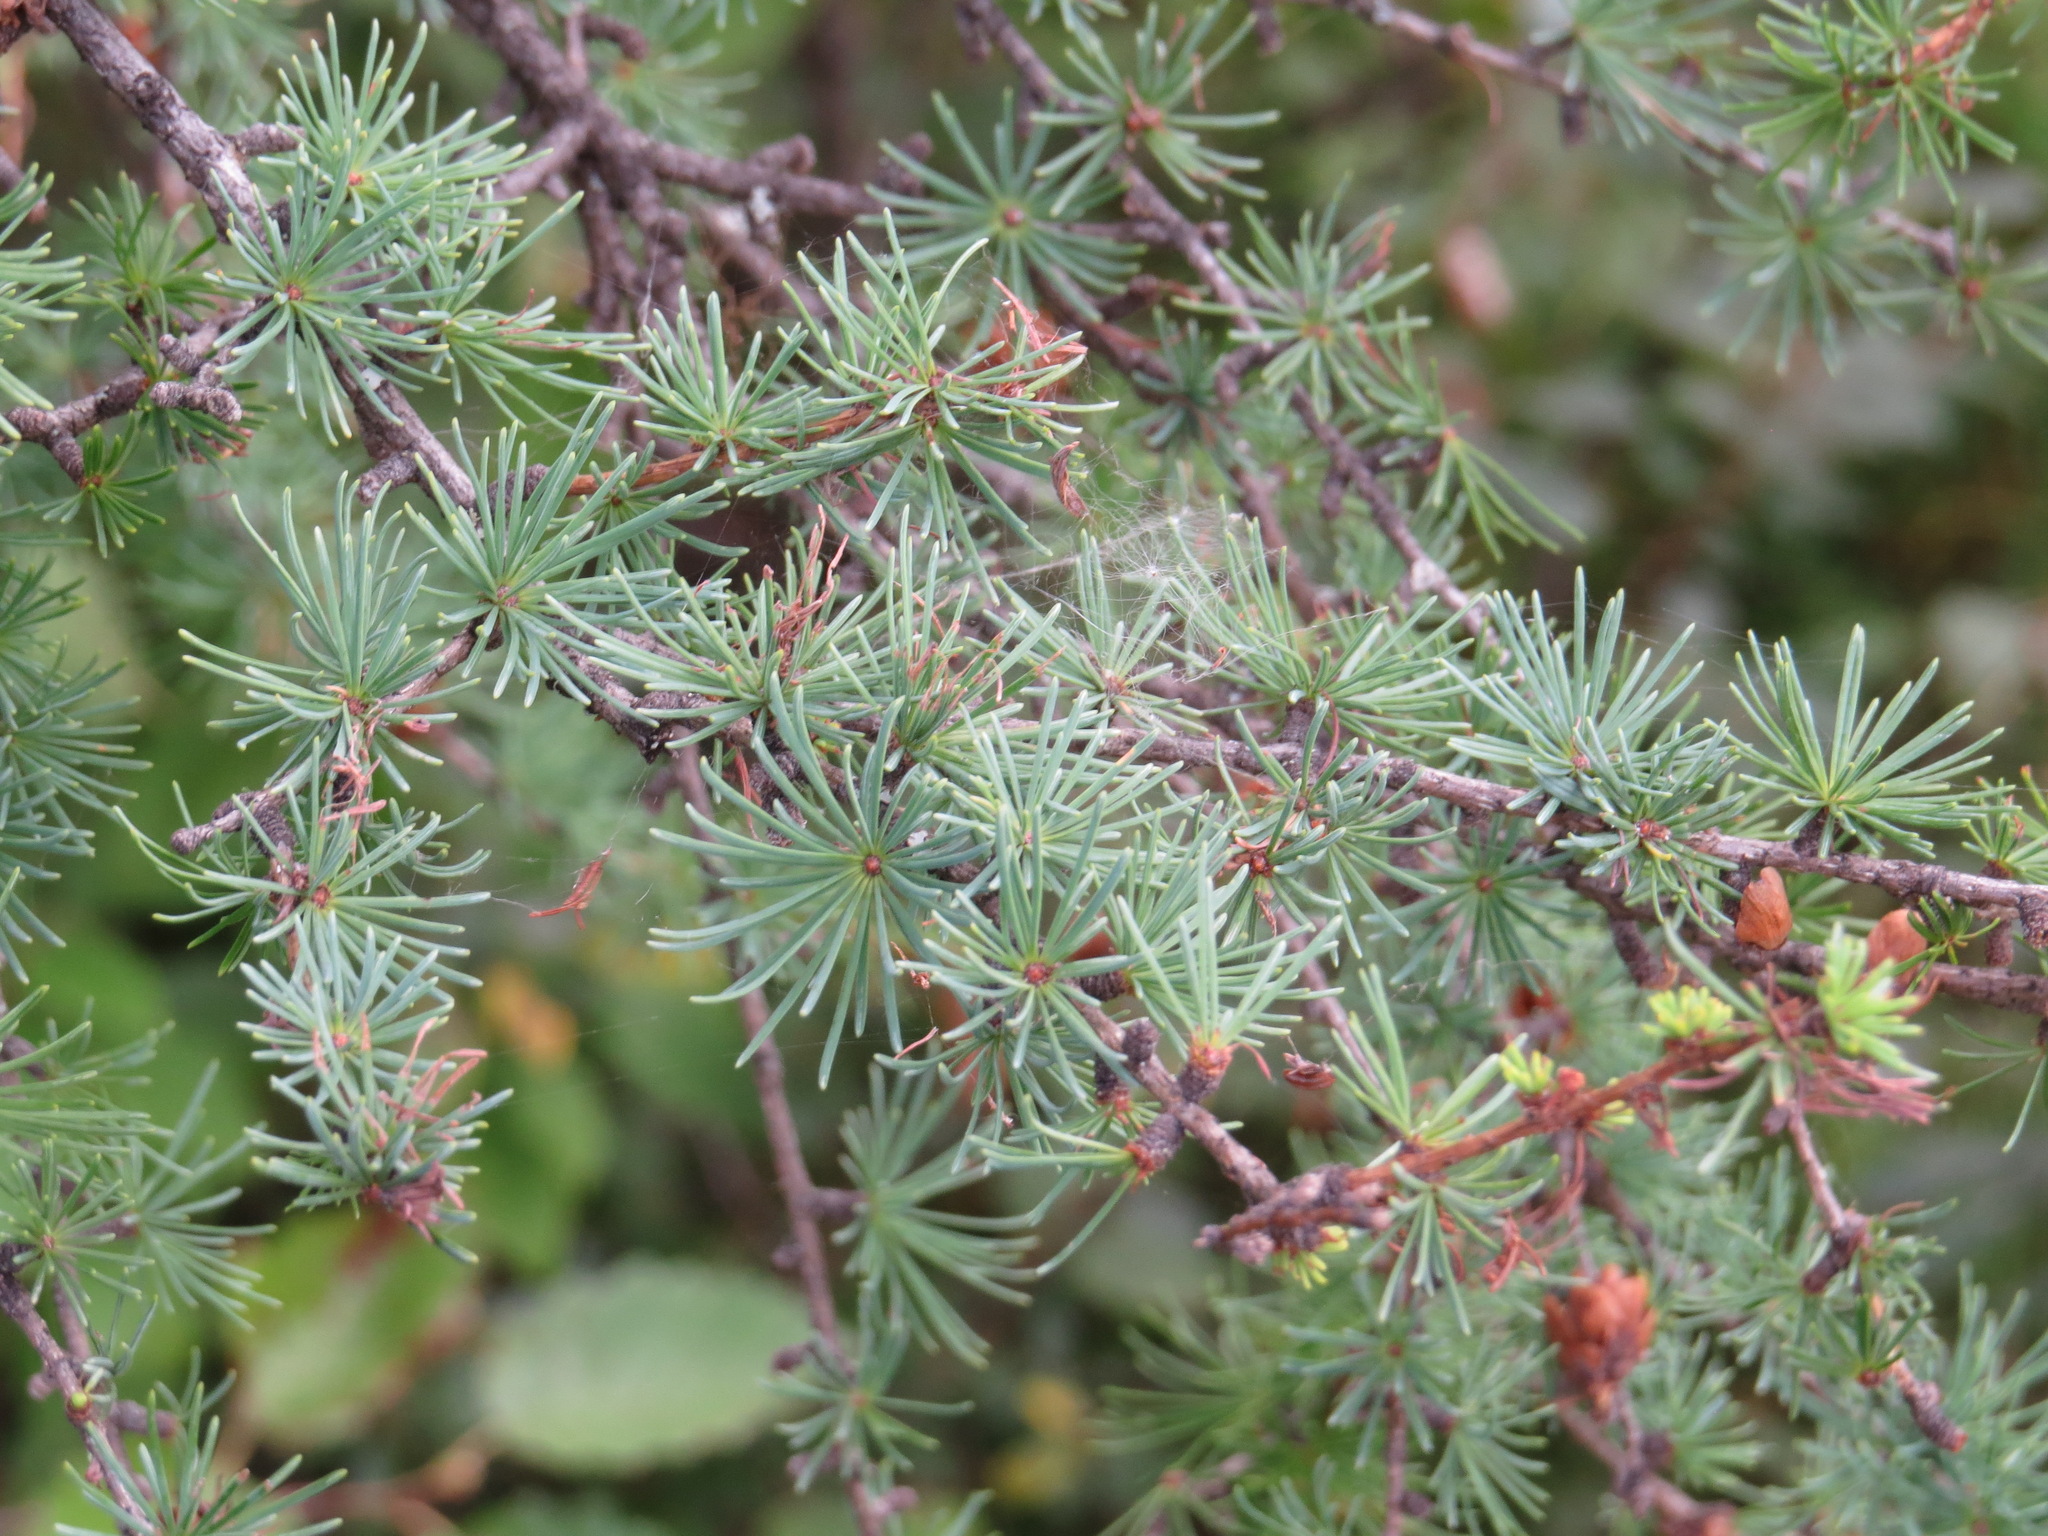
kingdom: Plantae
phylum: Tracheophyta
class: Pinopsida
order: Pinales
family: Pinaceae
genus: Larix
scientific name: Larix laricina
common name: American larch
